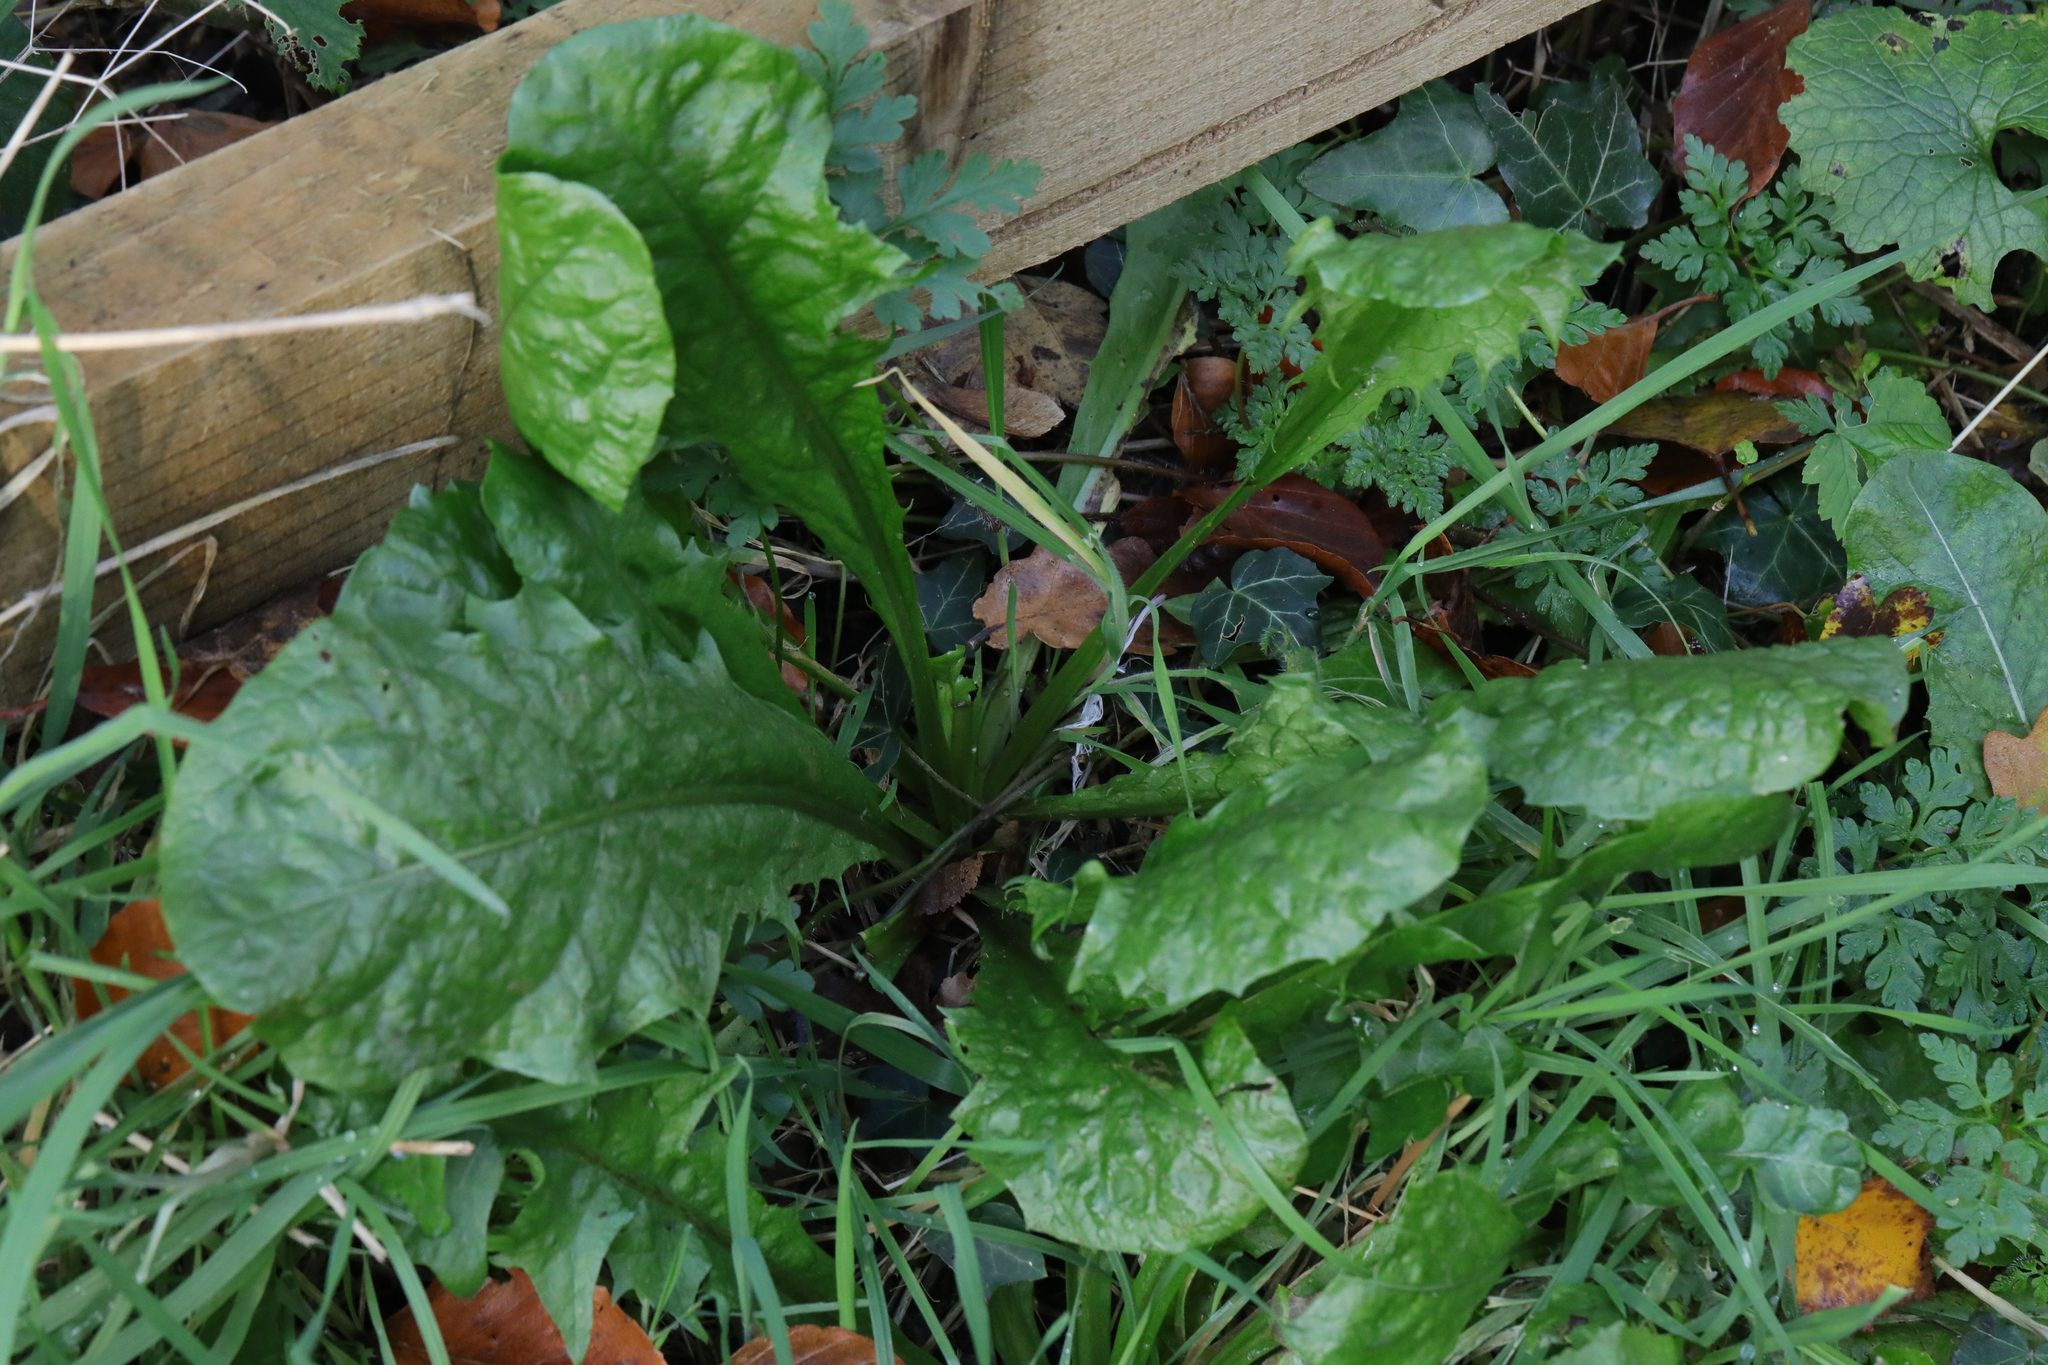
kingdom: Plantae
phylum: Tracheophyta
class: Magnoliopsida
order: Asterales
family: Asteraceae
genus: Taraxacum
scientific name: Taraxacum officinale
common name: Common dandelion
